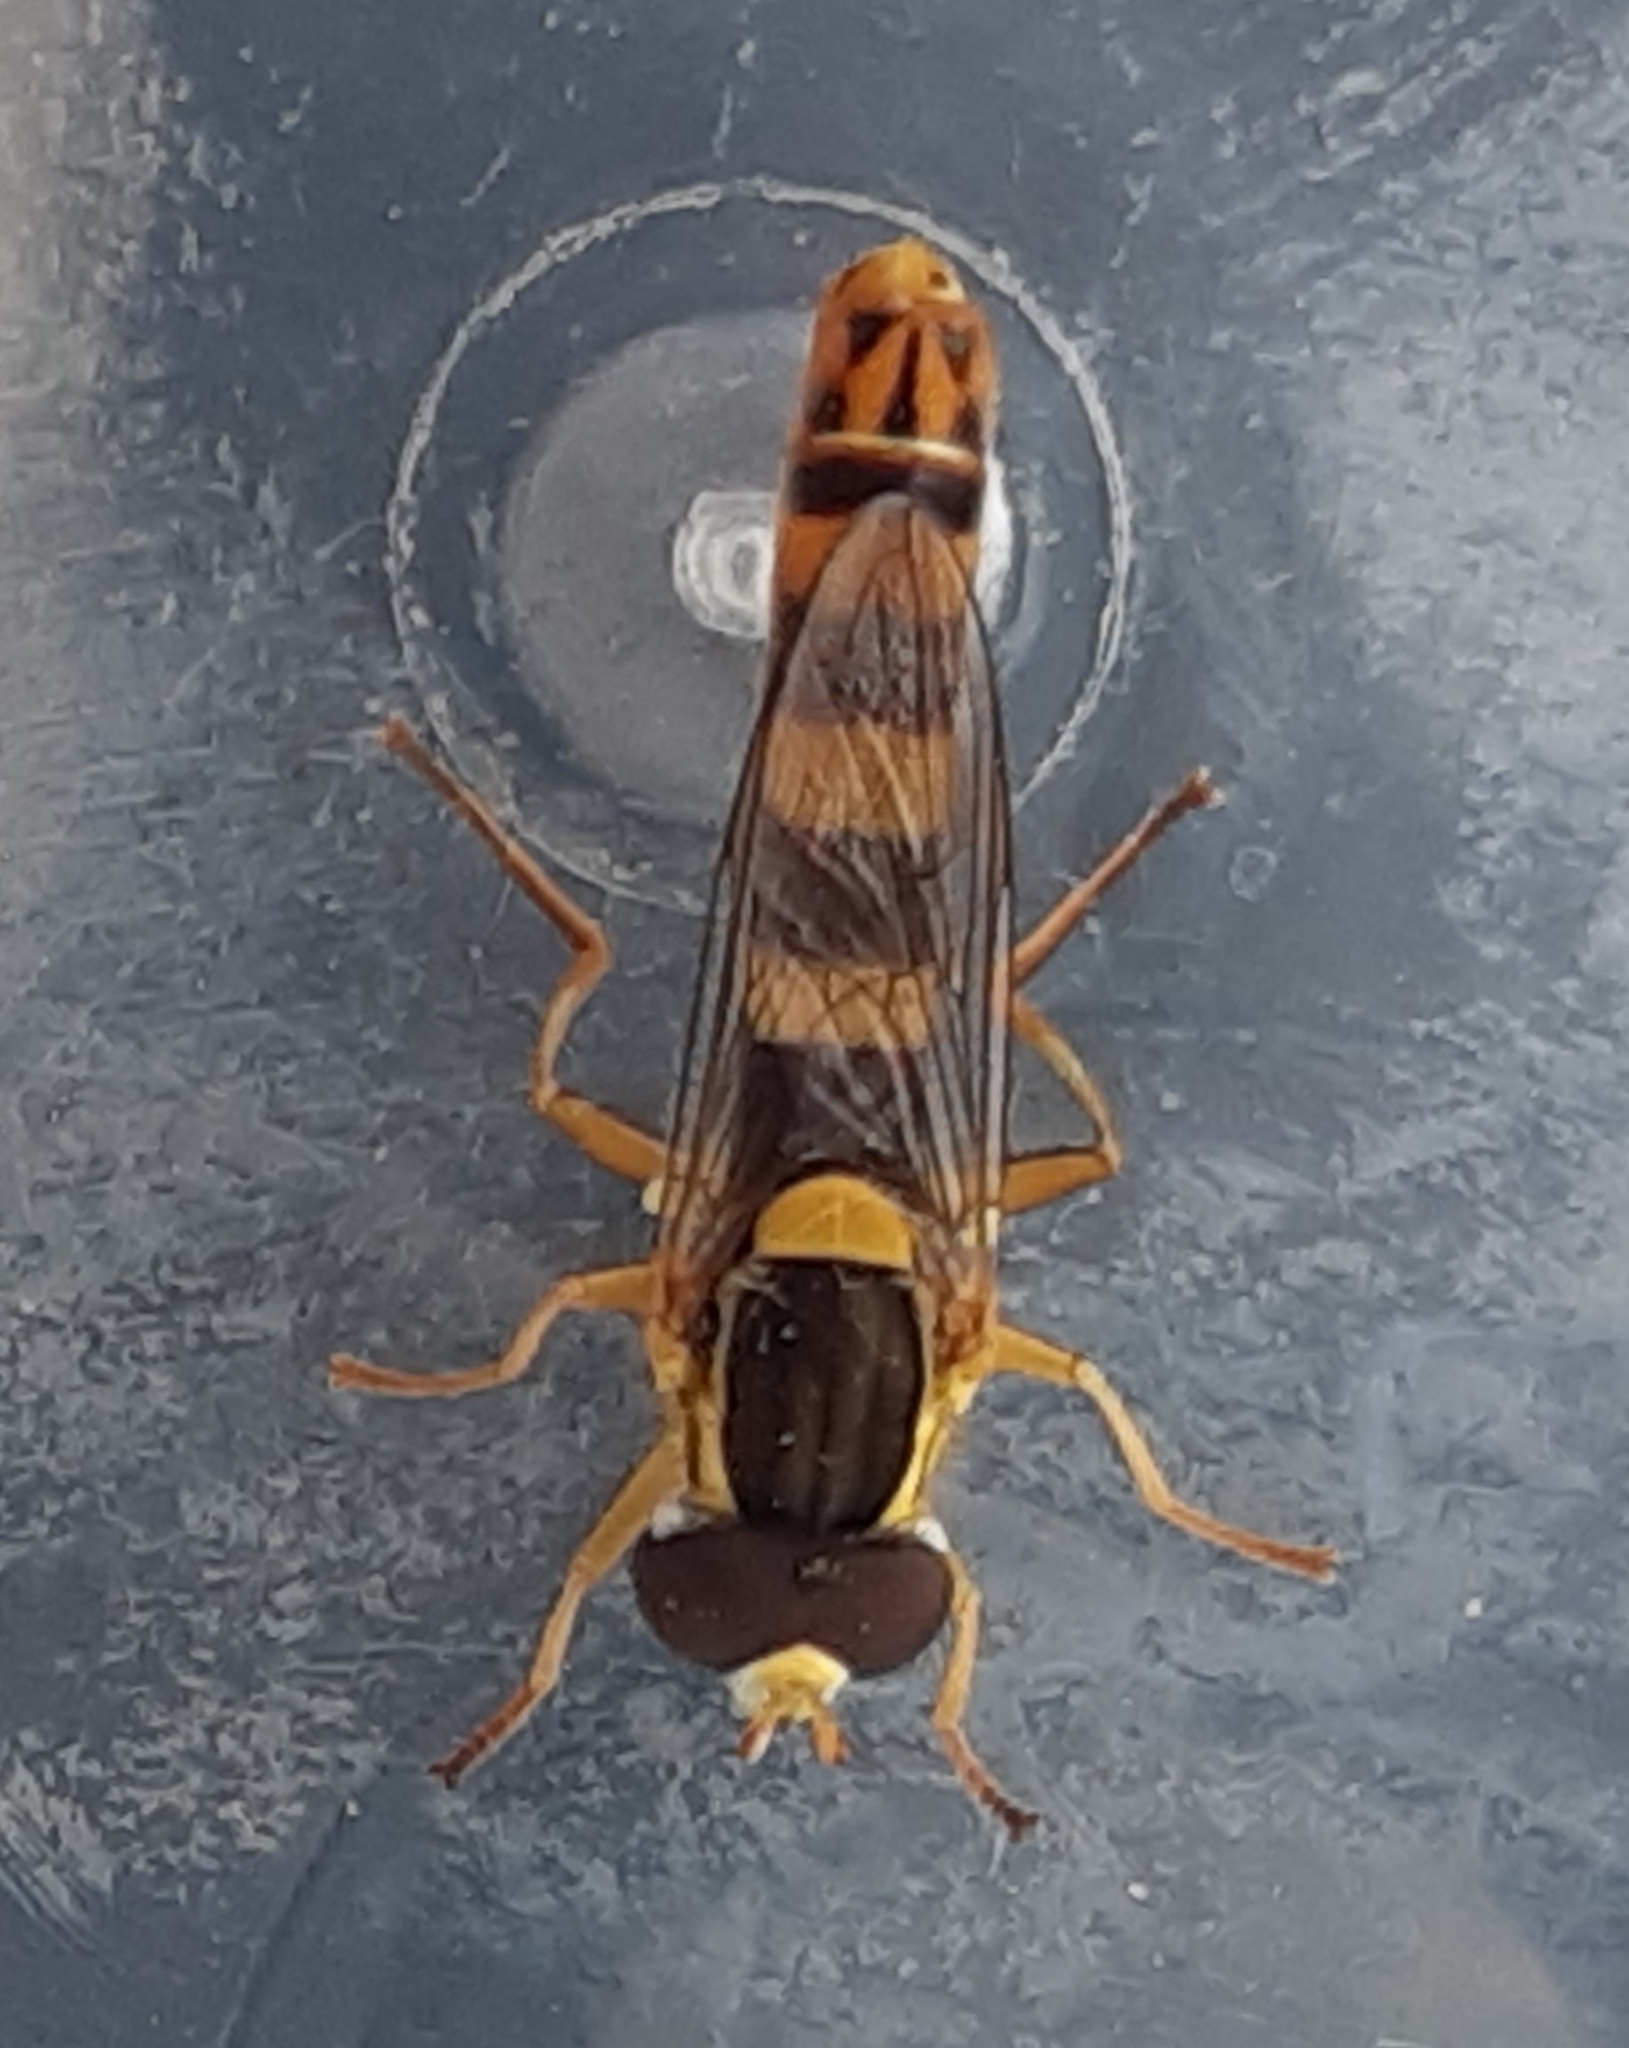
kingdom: Animalia
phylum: Arthropoda
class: Insecta
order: Diptera
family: Syrphidae
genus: Sphaerophoria
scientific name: Sphaerophoria scripta
